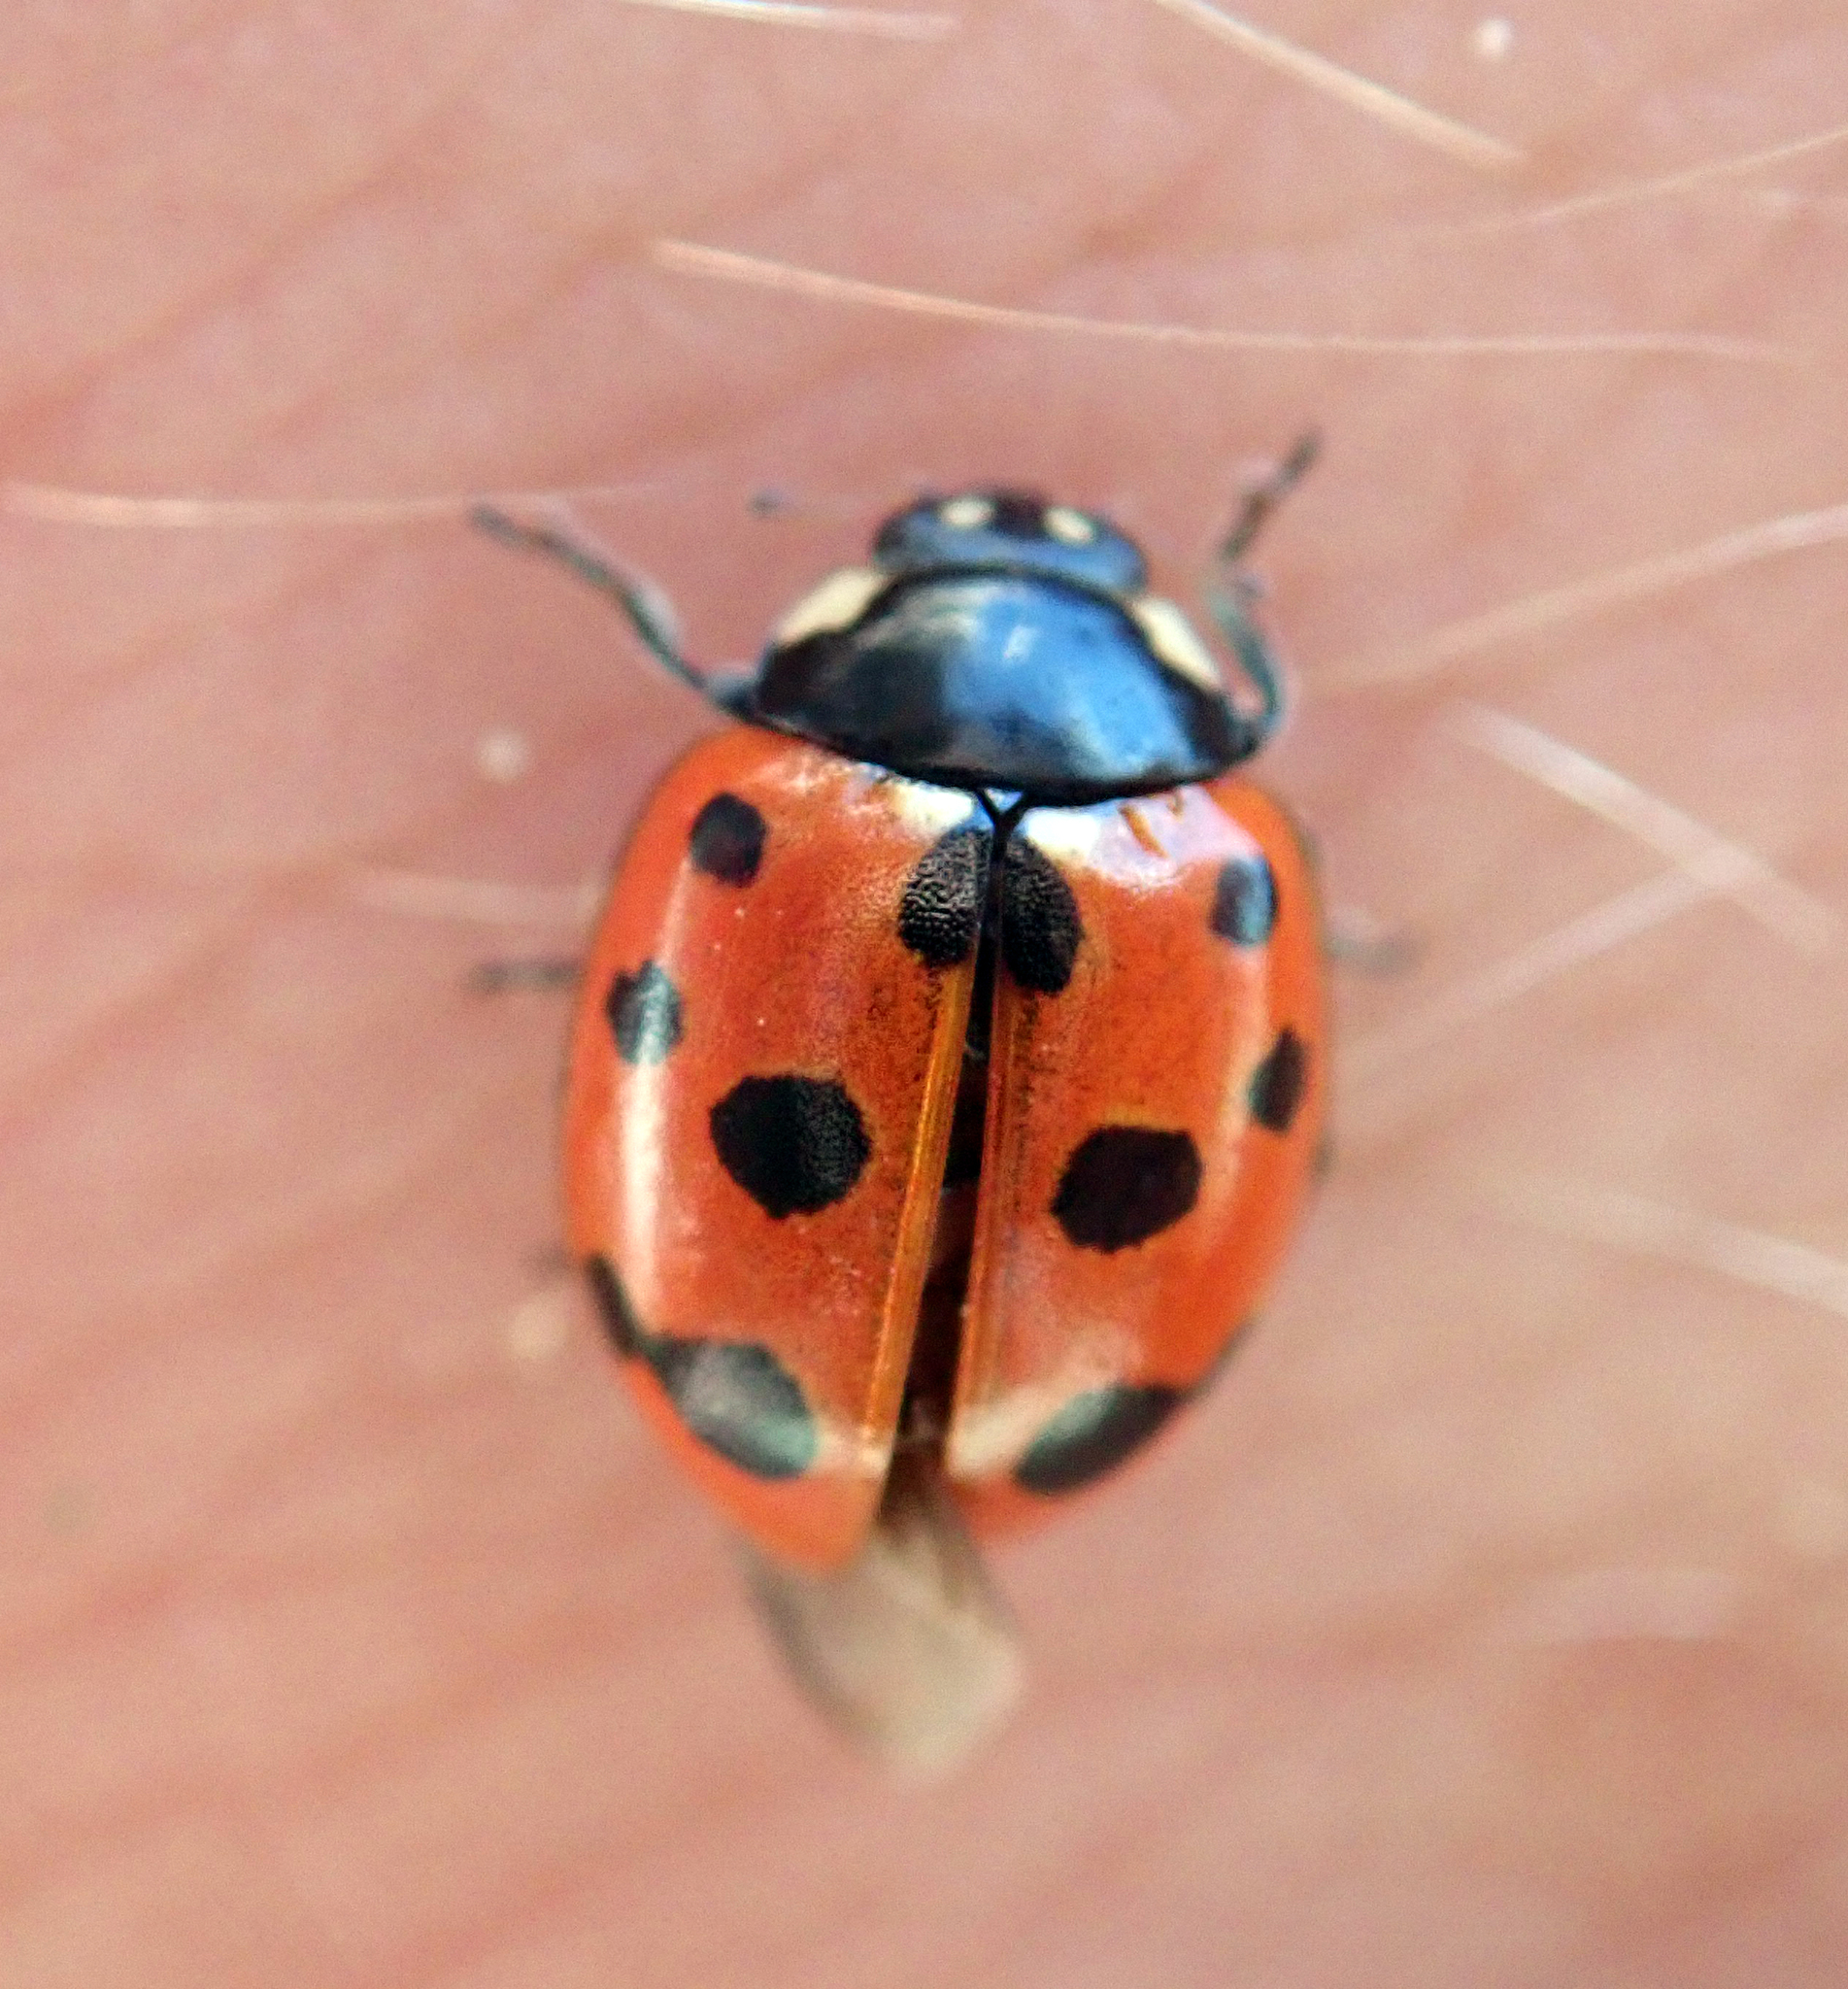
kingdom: Animalia
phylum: Arthropoda
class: Insecta
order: Coleoptera
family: Coccinellidae
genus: Coccinella
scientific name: Coccinella undecimpunctata
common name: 11-spot ladybird
